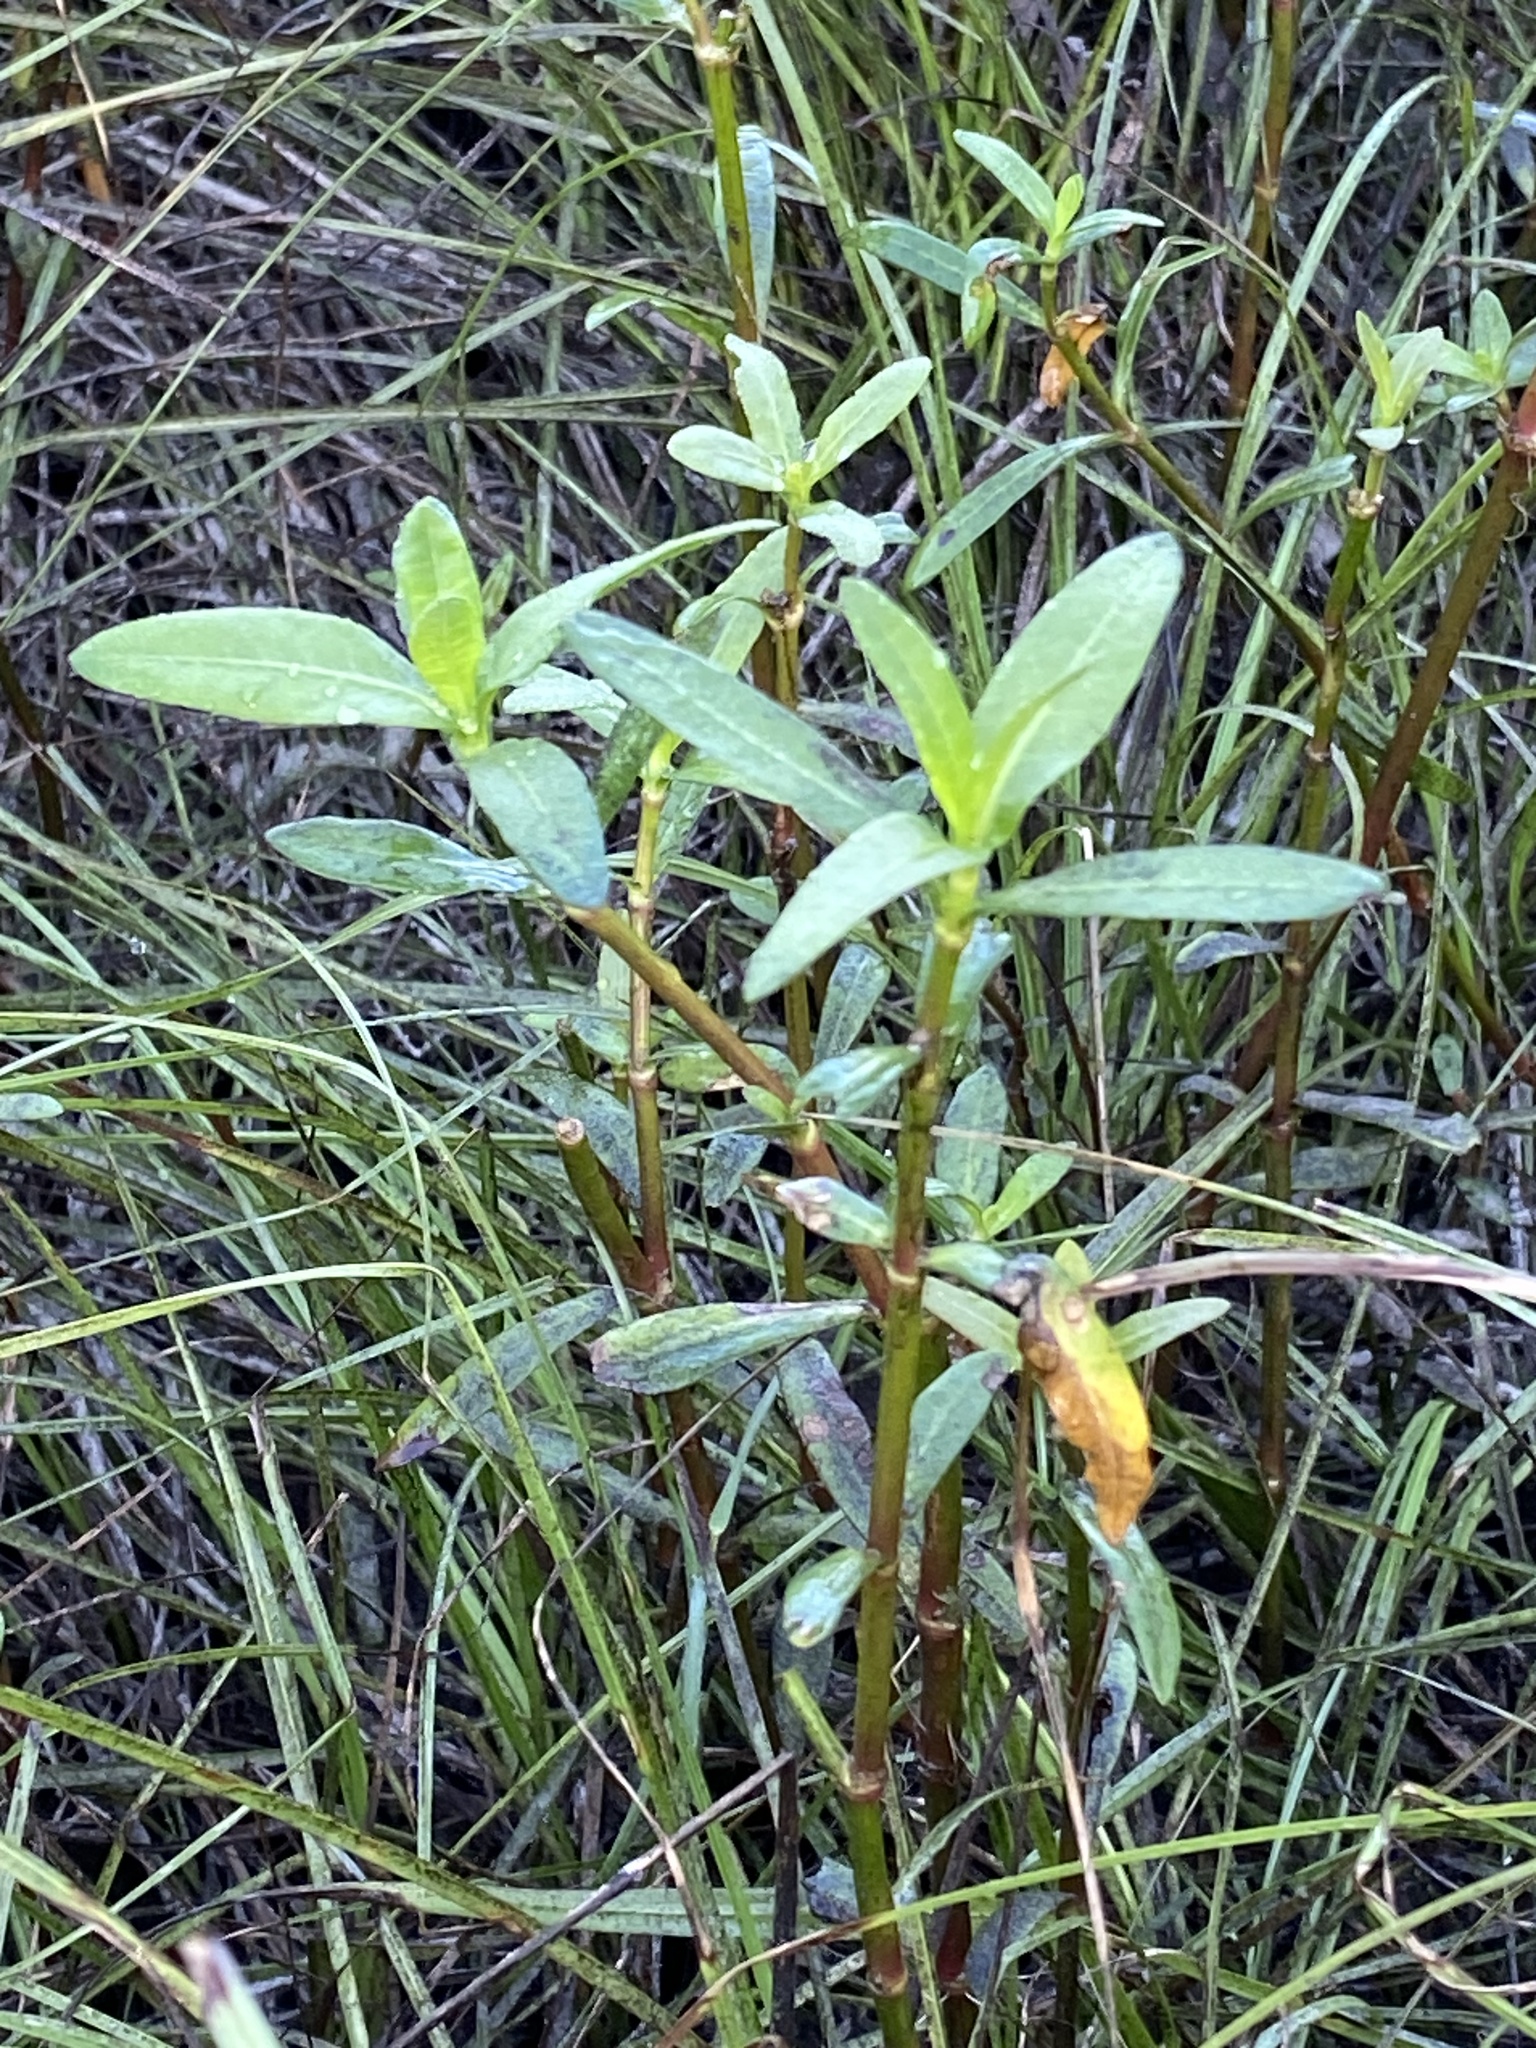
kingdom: Plantae
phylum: Tracheophyta
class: Magnoliopsida
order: Caryophyllales
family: Amaranthaceae
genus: Alternanthera
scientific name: Alternanthera philoxeroides
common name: Alligatorweed
